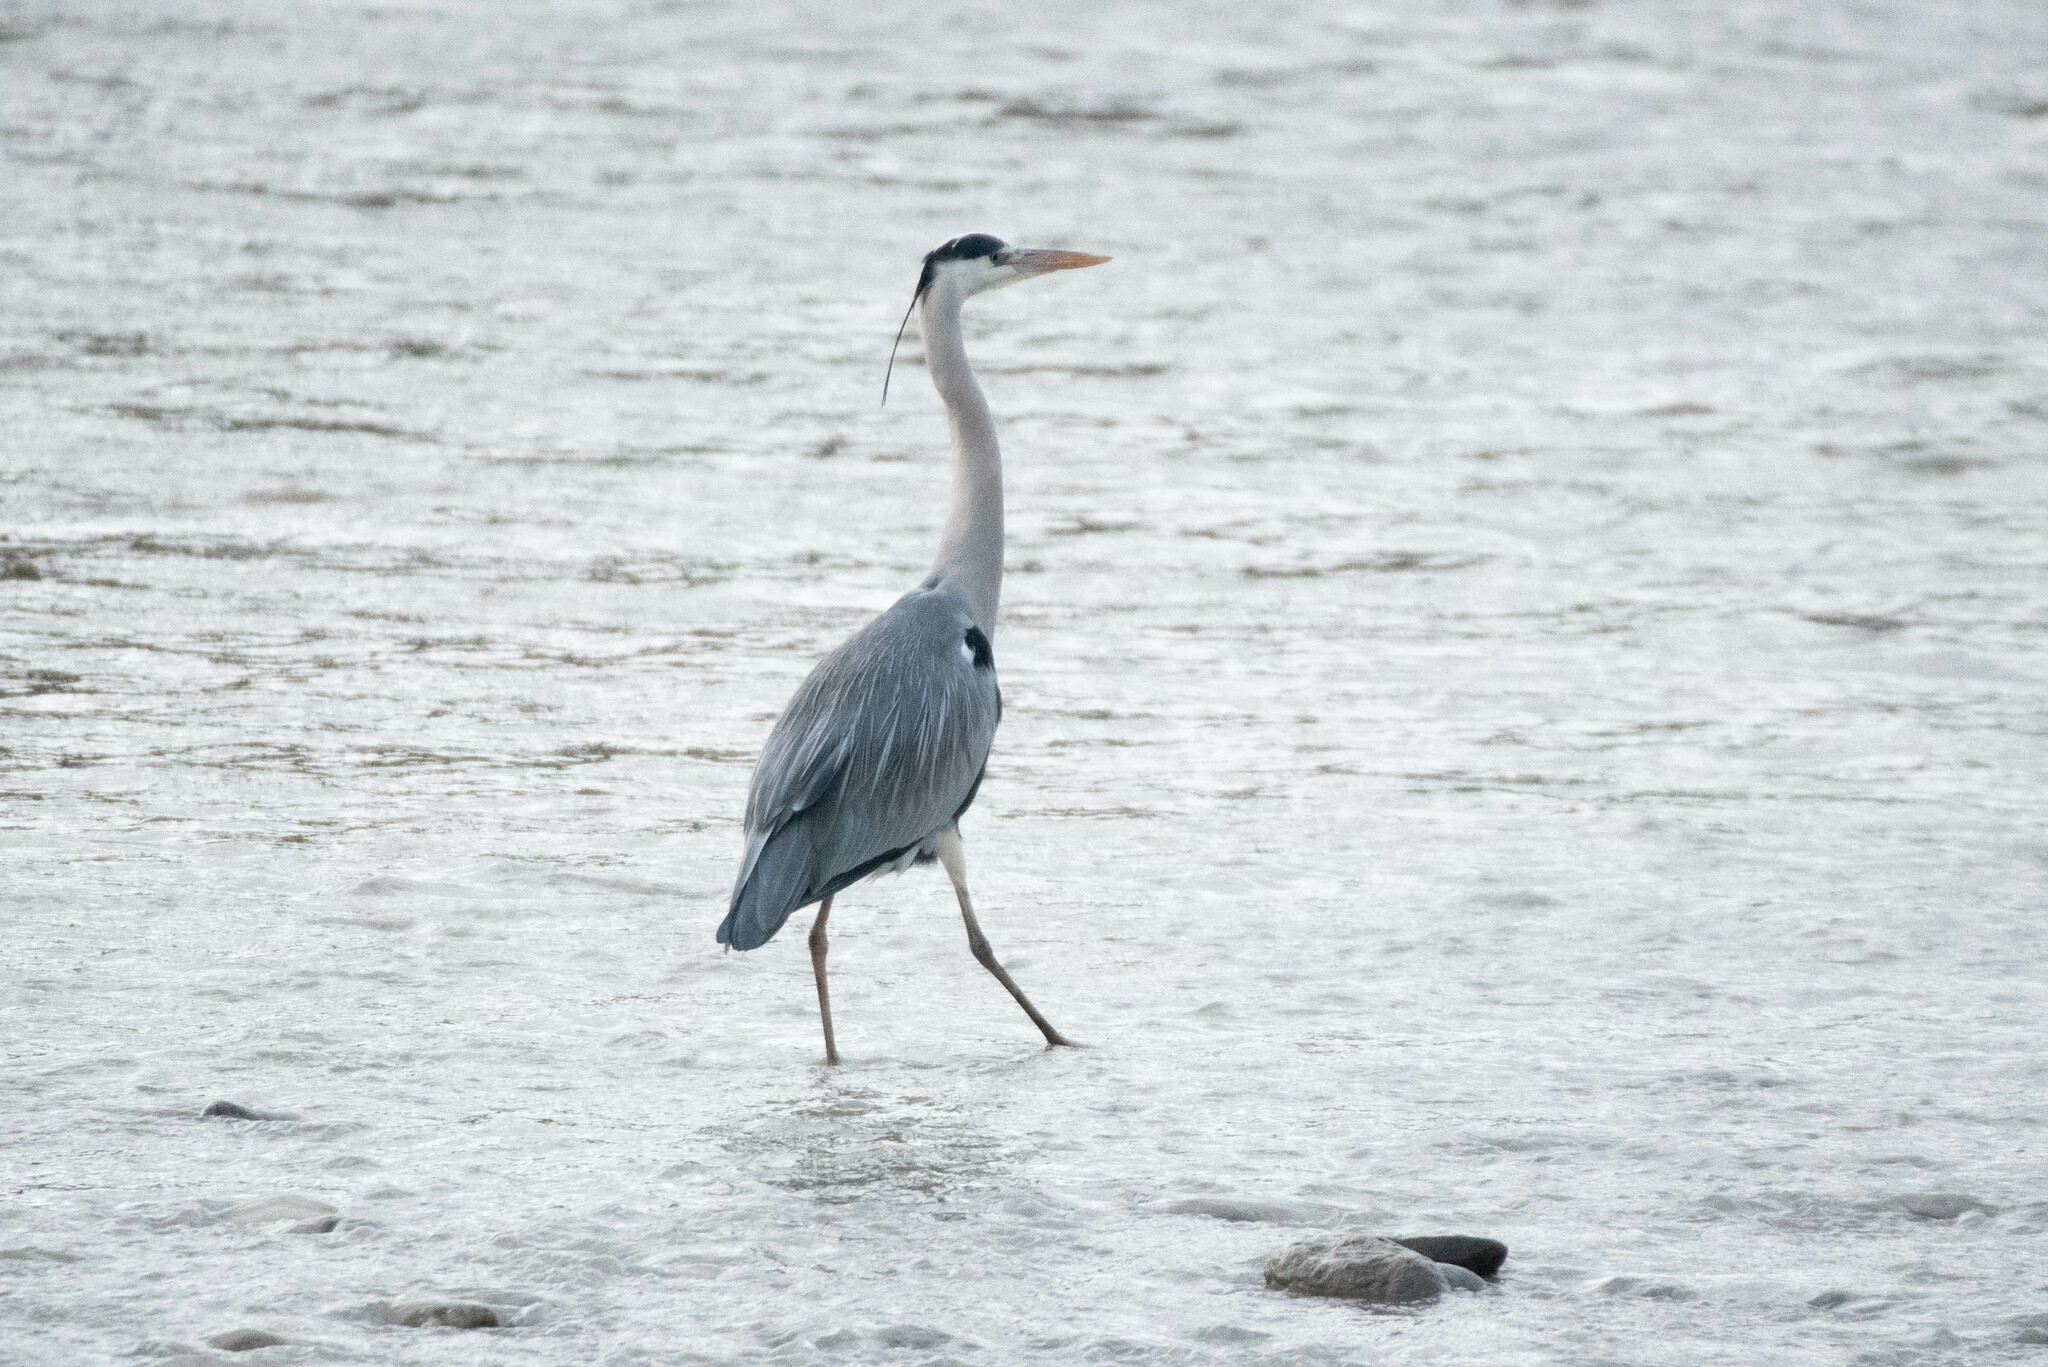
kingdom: Animalia
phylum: Chordata
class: Aves
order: Pelecaniformes
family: Ardeidae
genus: Ardea
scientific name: Ardea cinerea
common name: Grey heron
